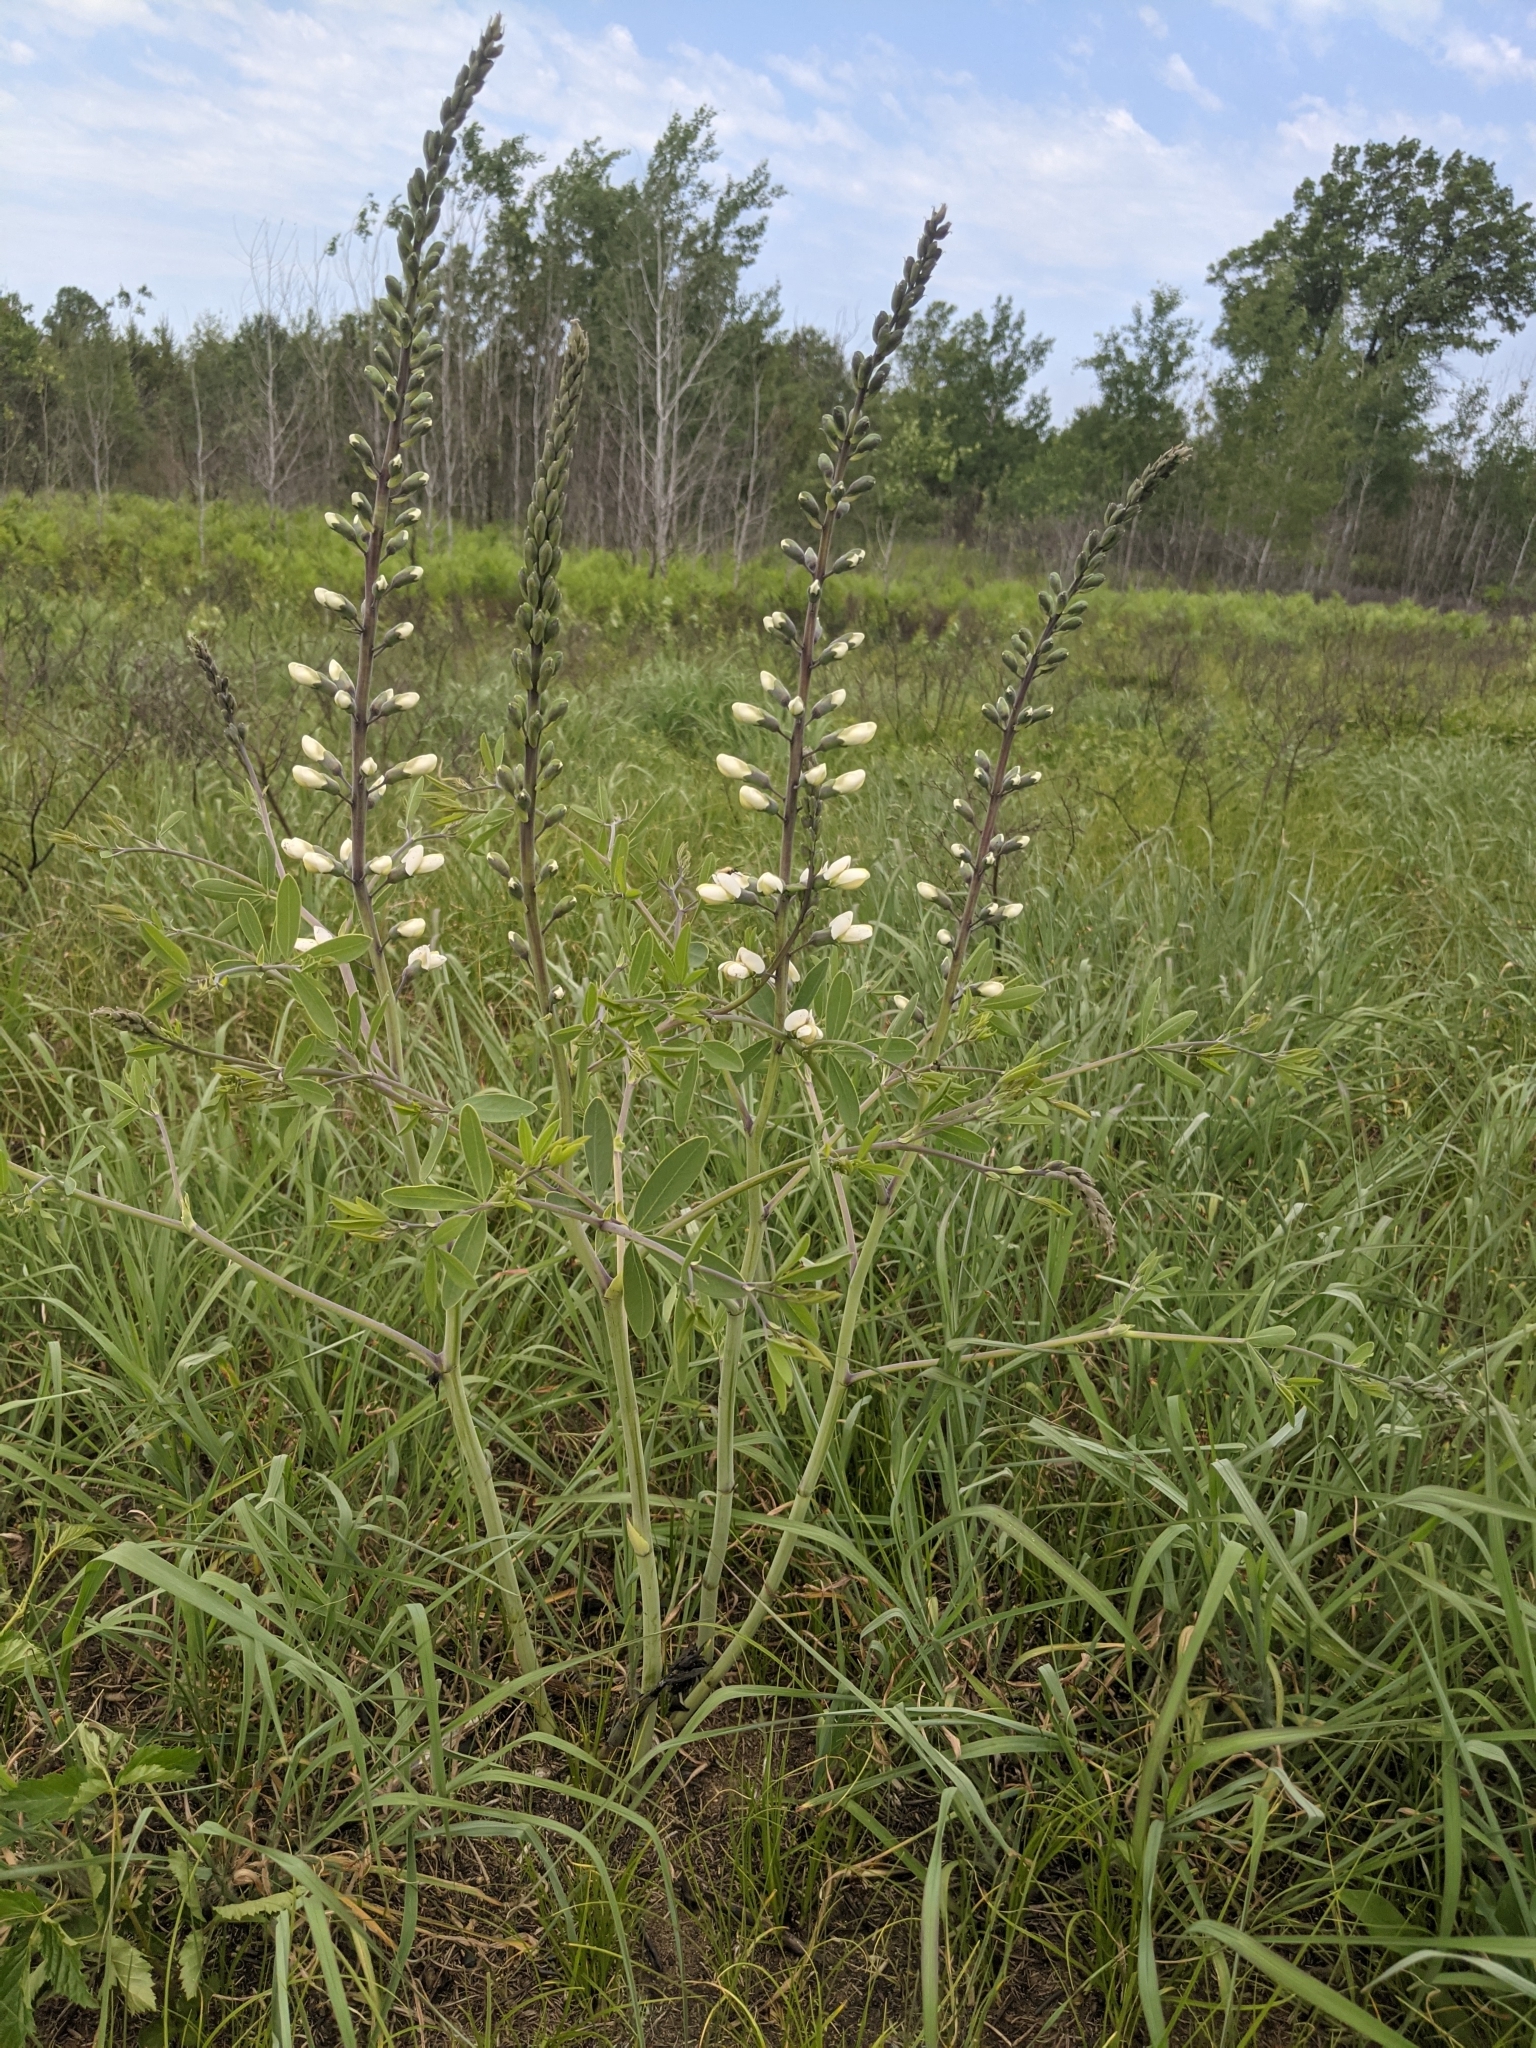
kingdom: Plantae
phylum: Tracheophyta
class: Magnoliopsida
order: Fabales
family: Fabaceae
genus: Baptisia
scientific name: Baptisia alba
